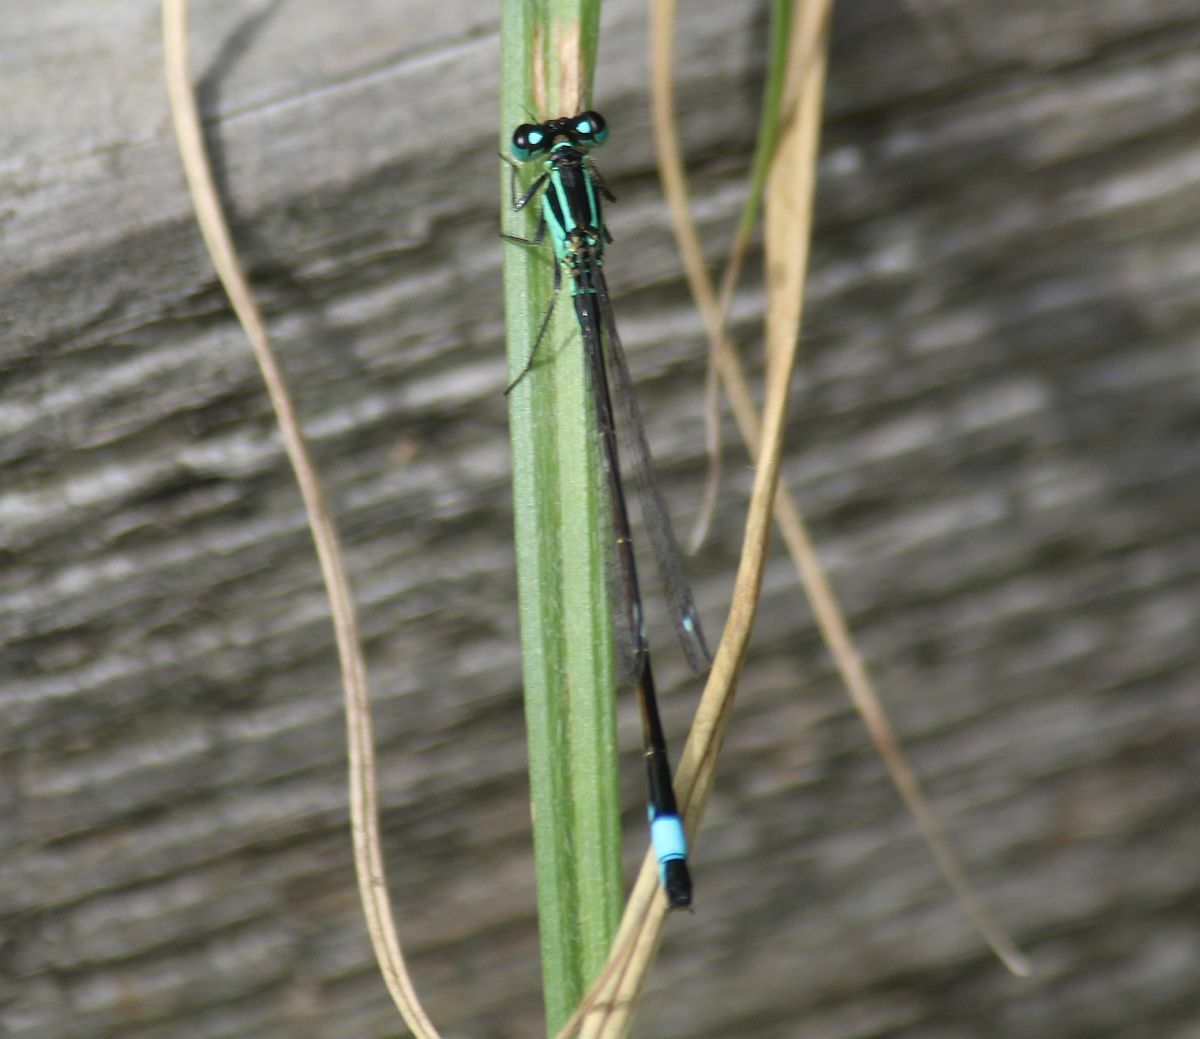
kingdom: Animalia
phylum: Arthropoda
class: Insecta
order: Odonata
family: Coenagrionidae
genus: Ischnura
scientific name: Ischnura elegans
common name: Blue-tailed damselfly
